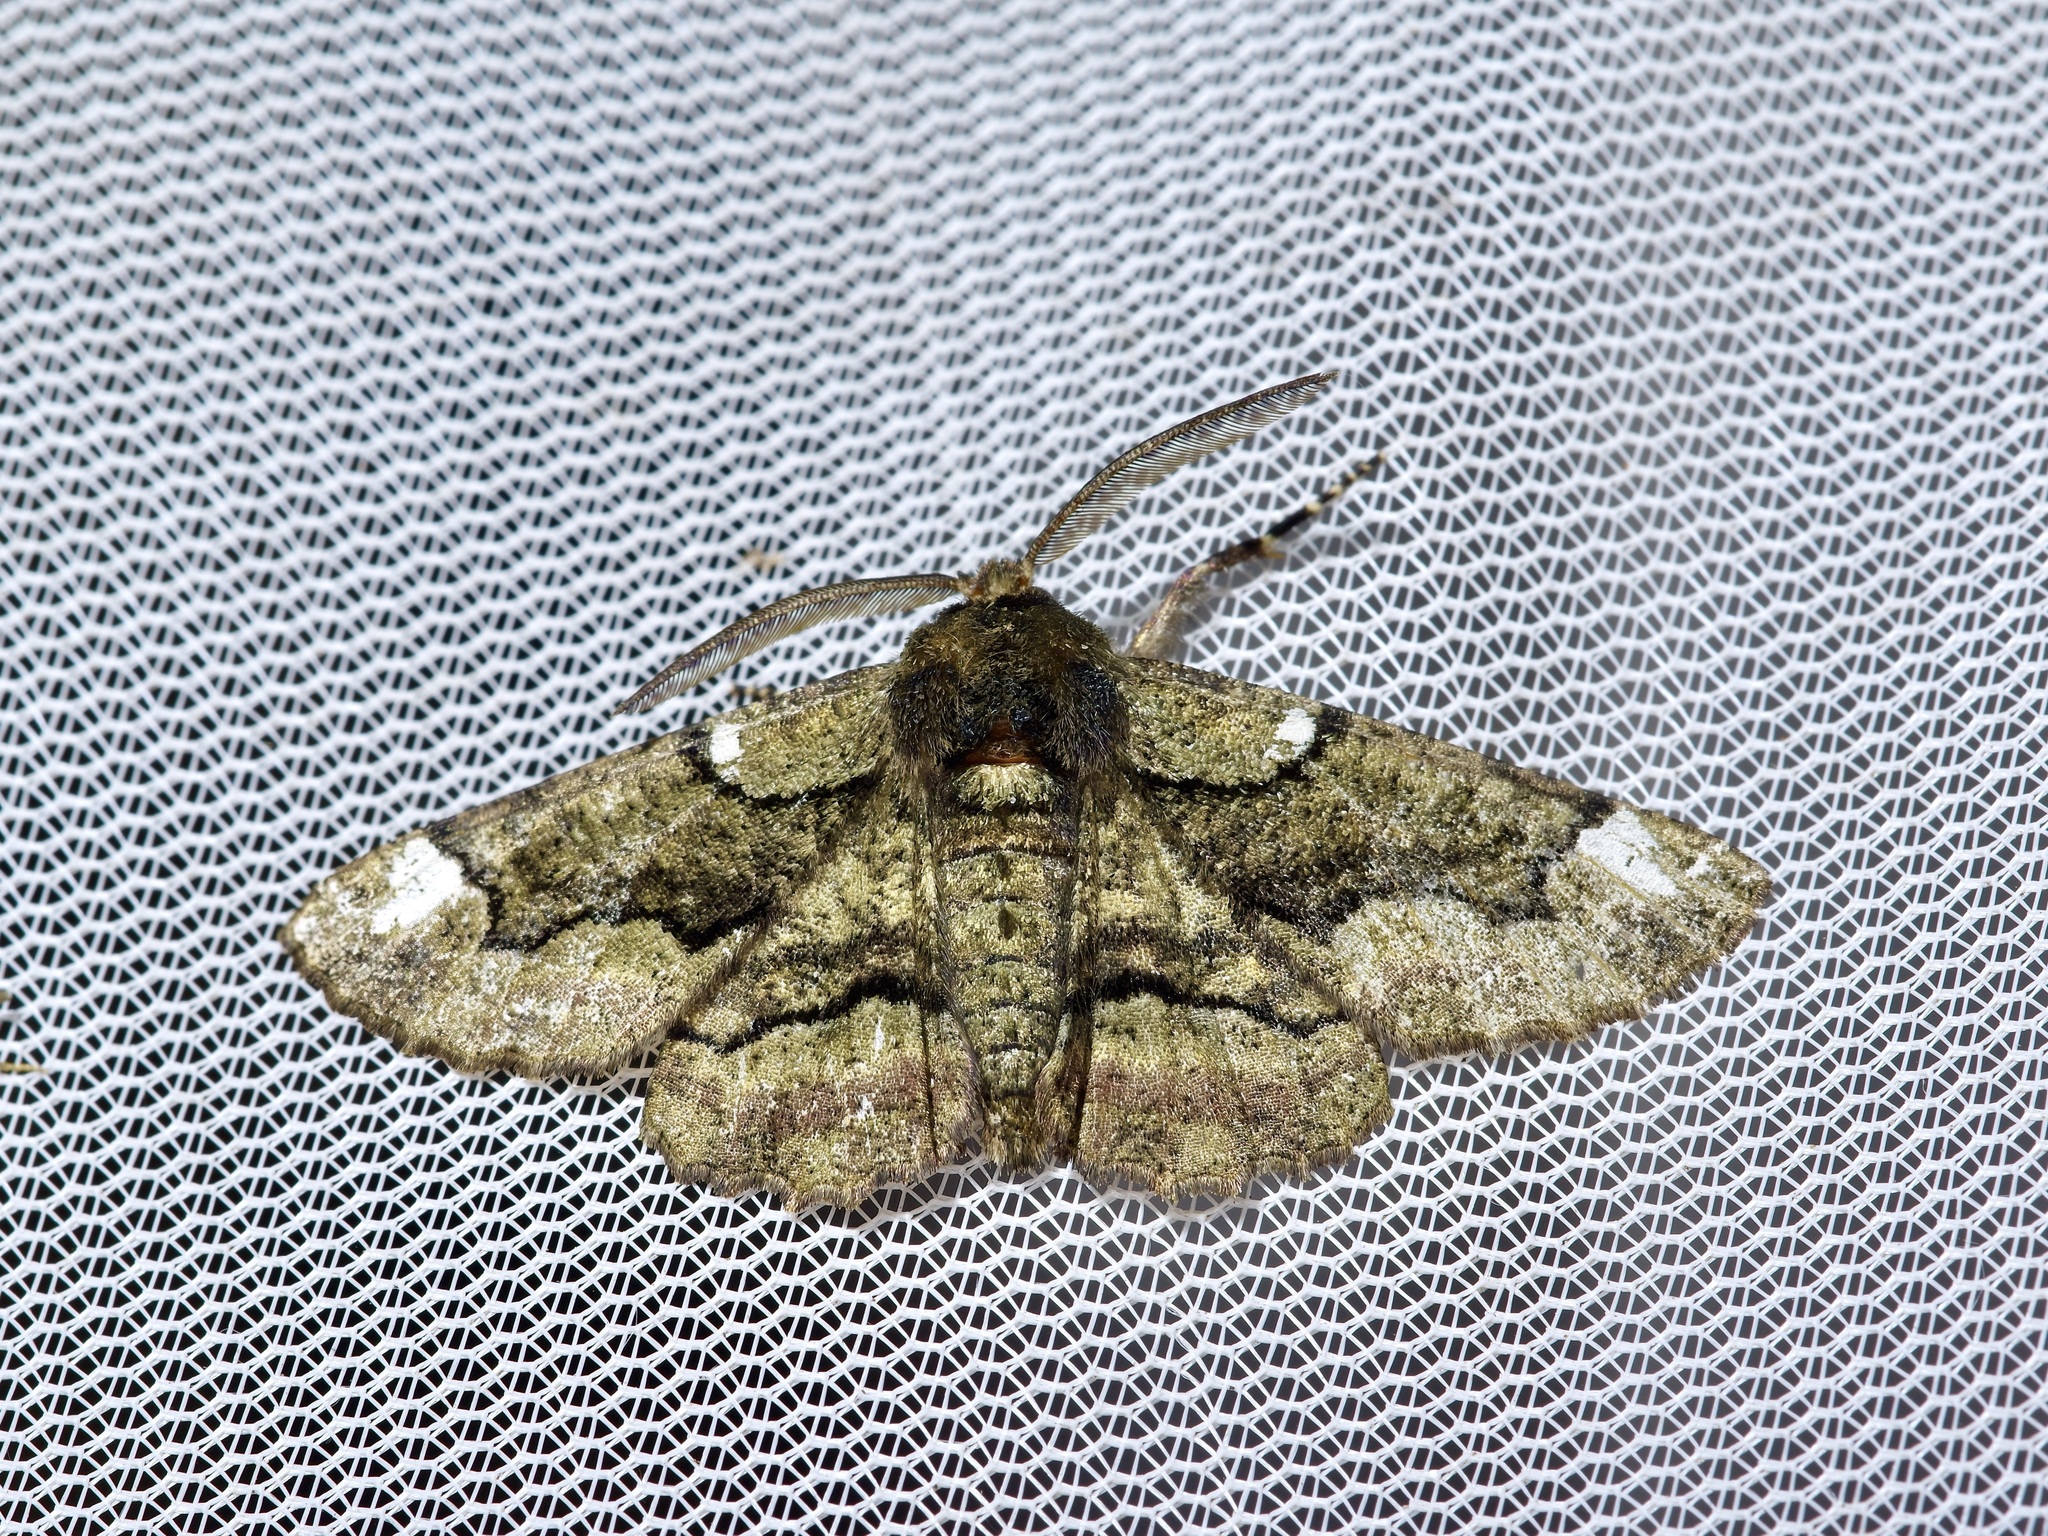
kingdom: Animalia
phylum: Arthropoda
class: Insecta
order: Lepidoptera
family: Geometridae
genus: Phaeoura
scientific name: Phaeoura quernaria
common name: Oak beauty
